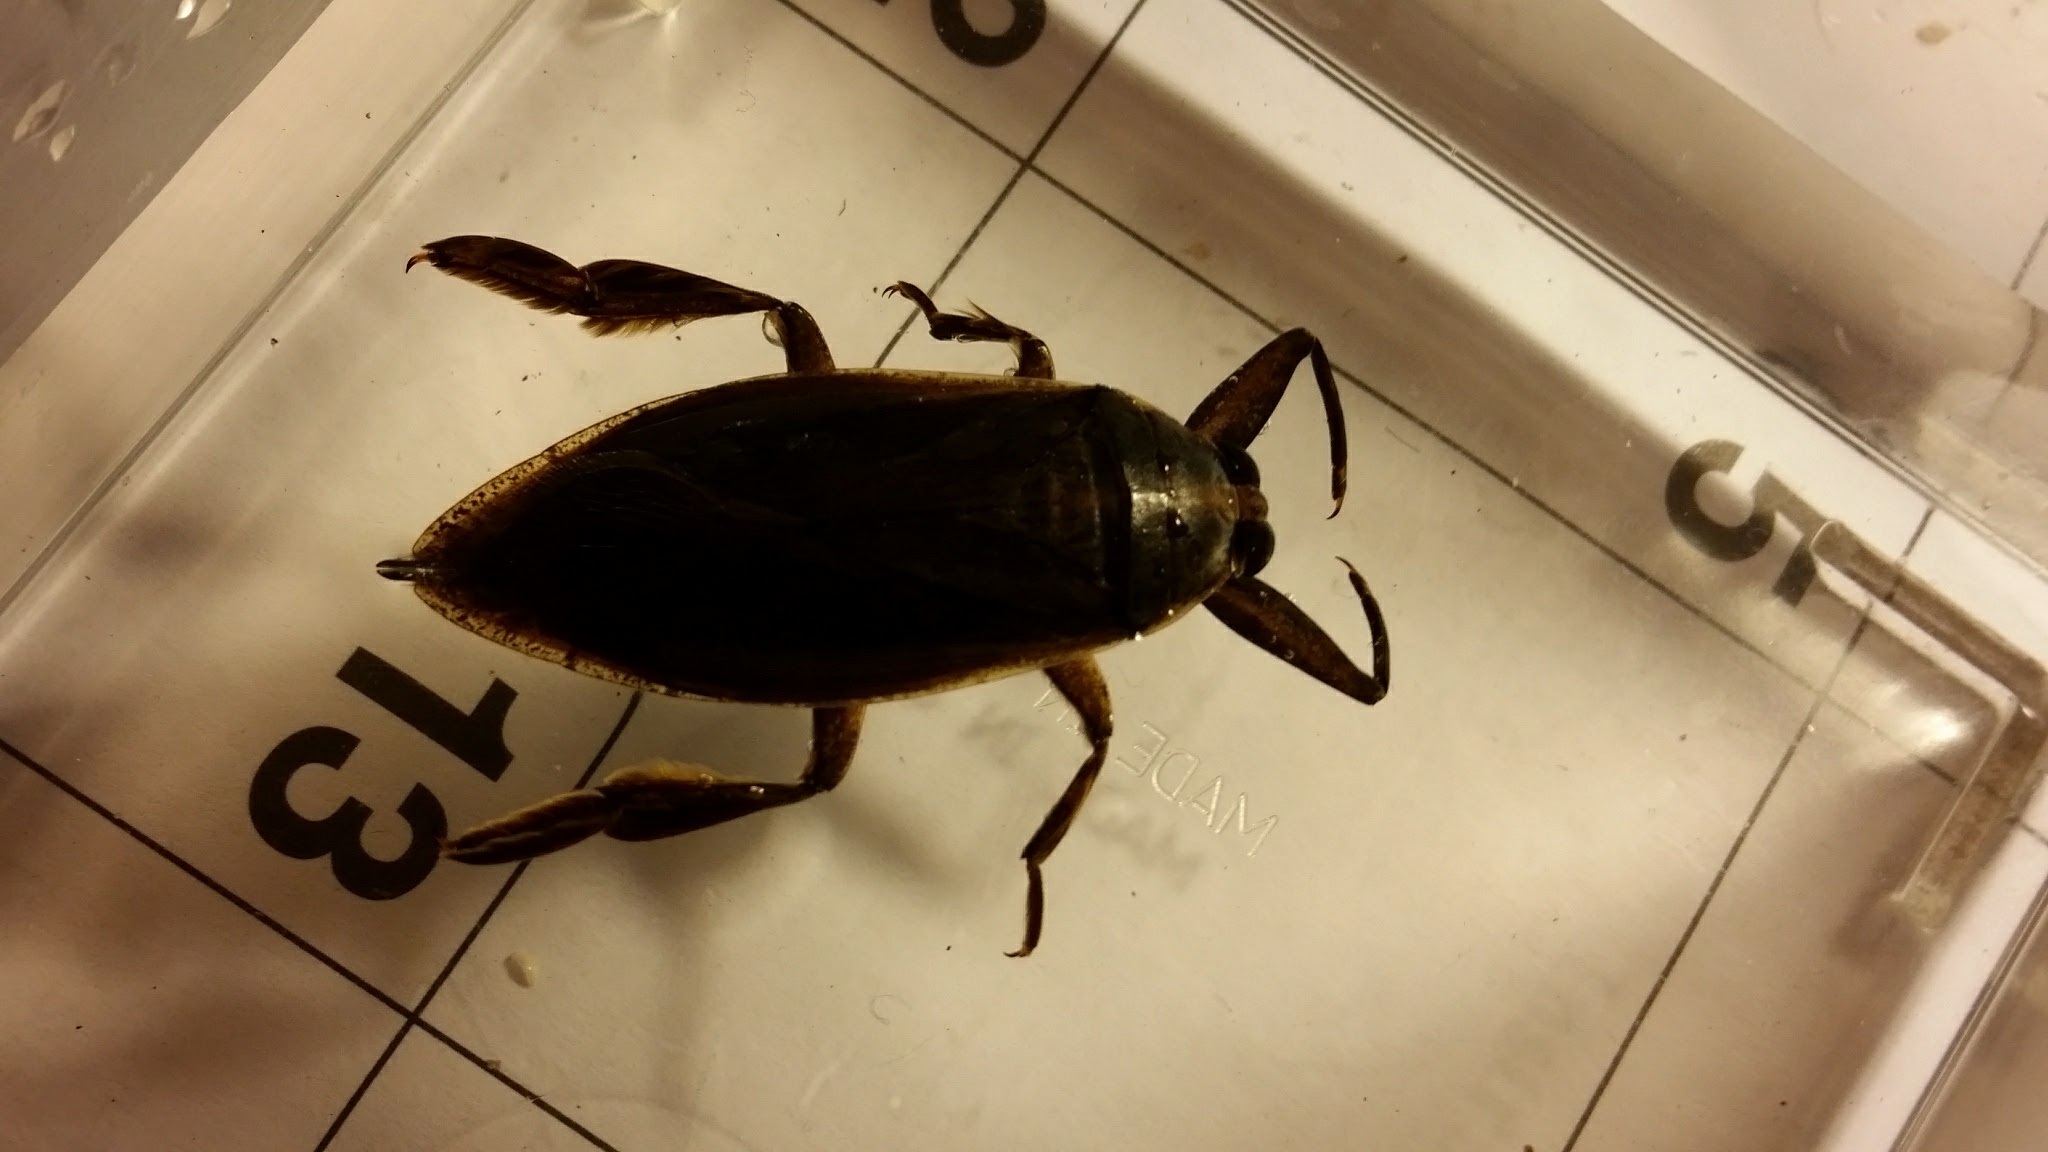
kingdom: Animalia
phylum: Arthropoda
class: Insecta
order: Hemiptera
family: Belostomatidae
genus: Benacus
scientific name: Benacus griseus
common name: Eastern toe-biter
